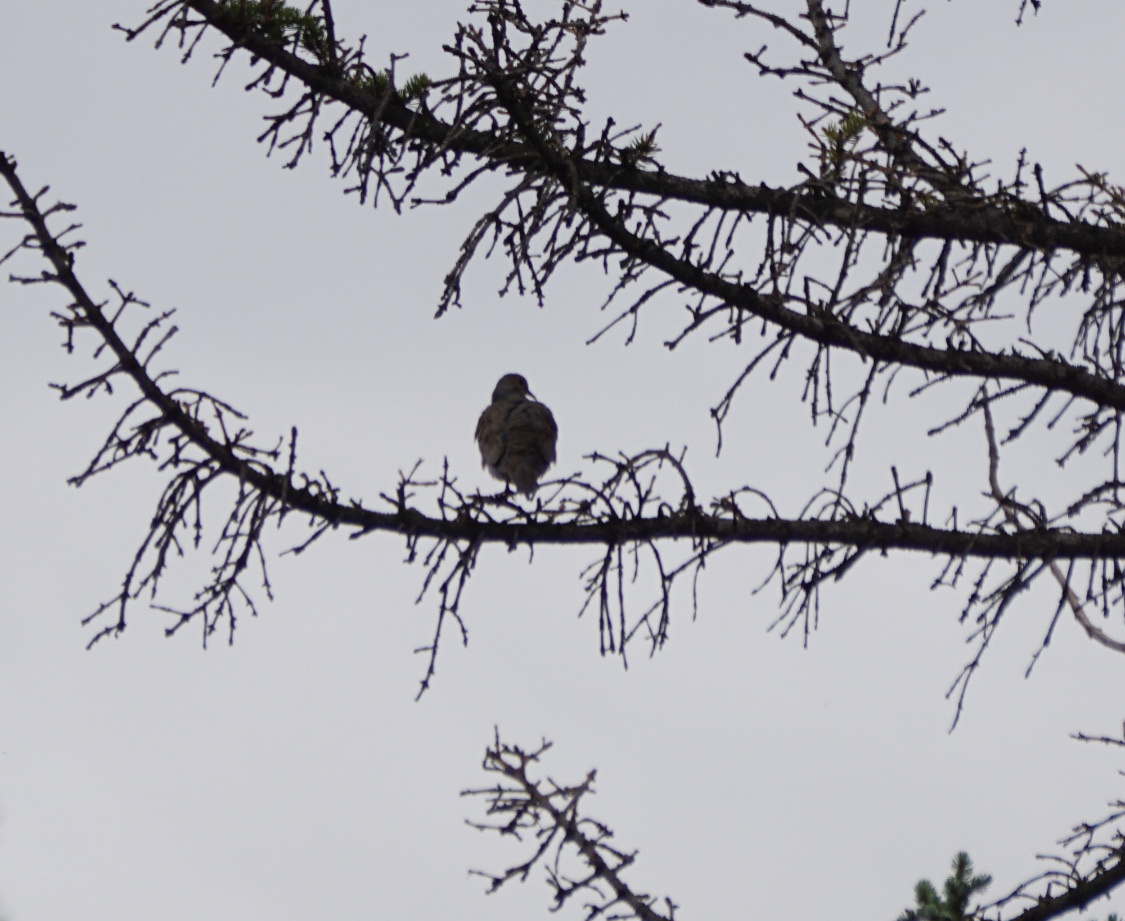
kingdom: Animalia
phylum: Chordata
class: Aves
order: Columbiformes
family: Columbidae
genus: Zenaida
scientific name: Zenaida macroura
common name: Mourning dove
